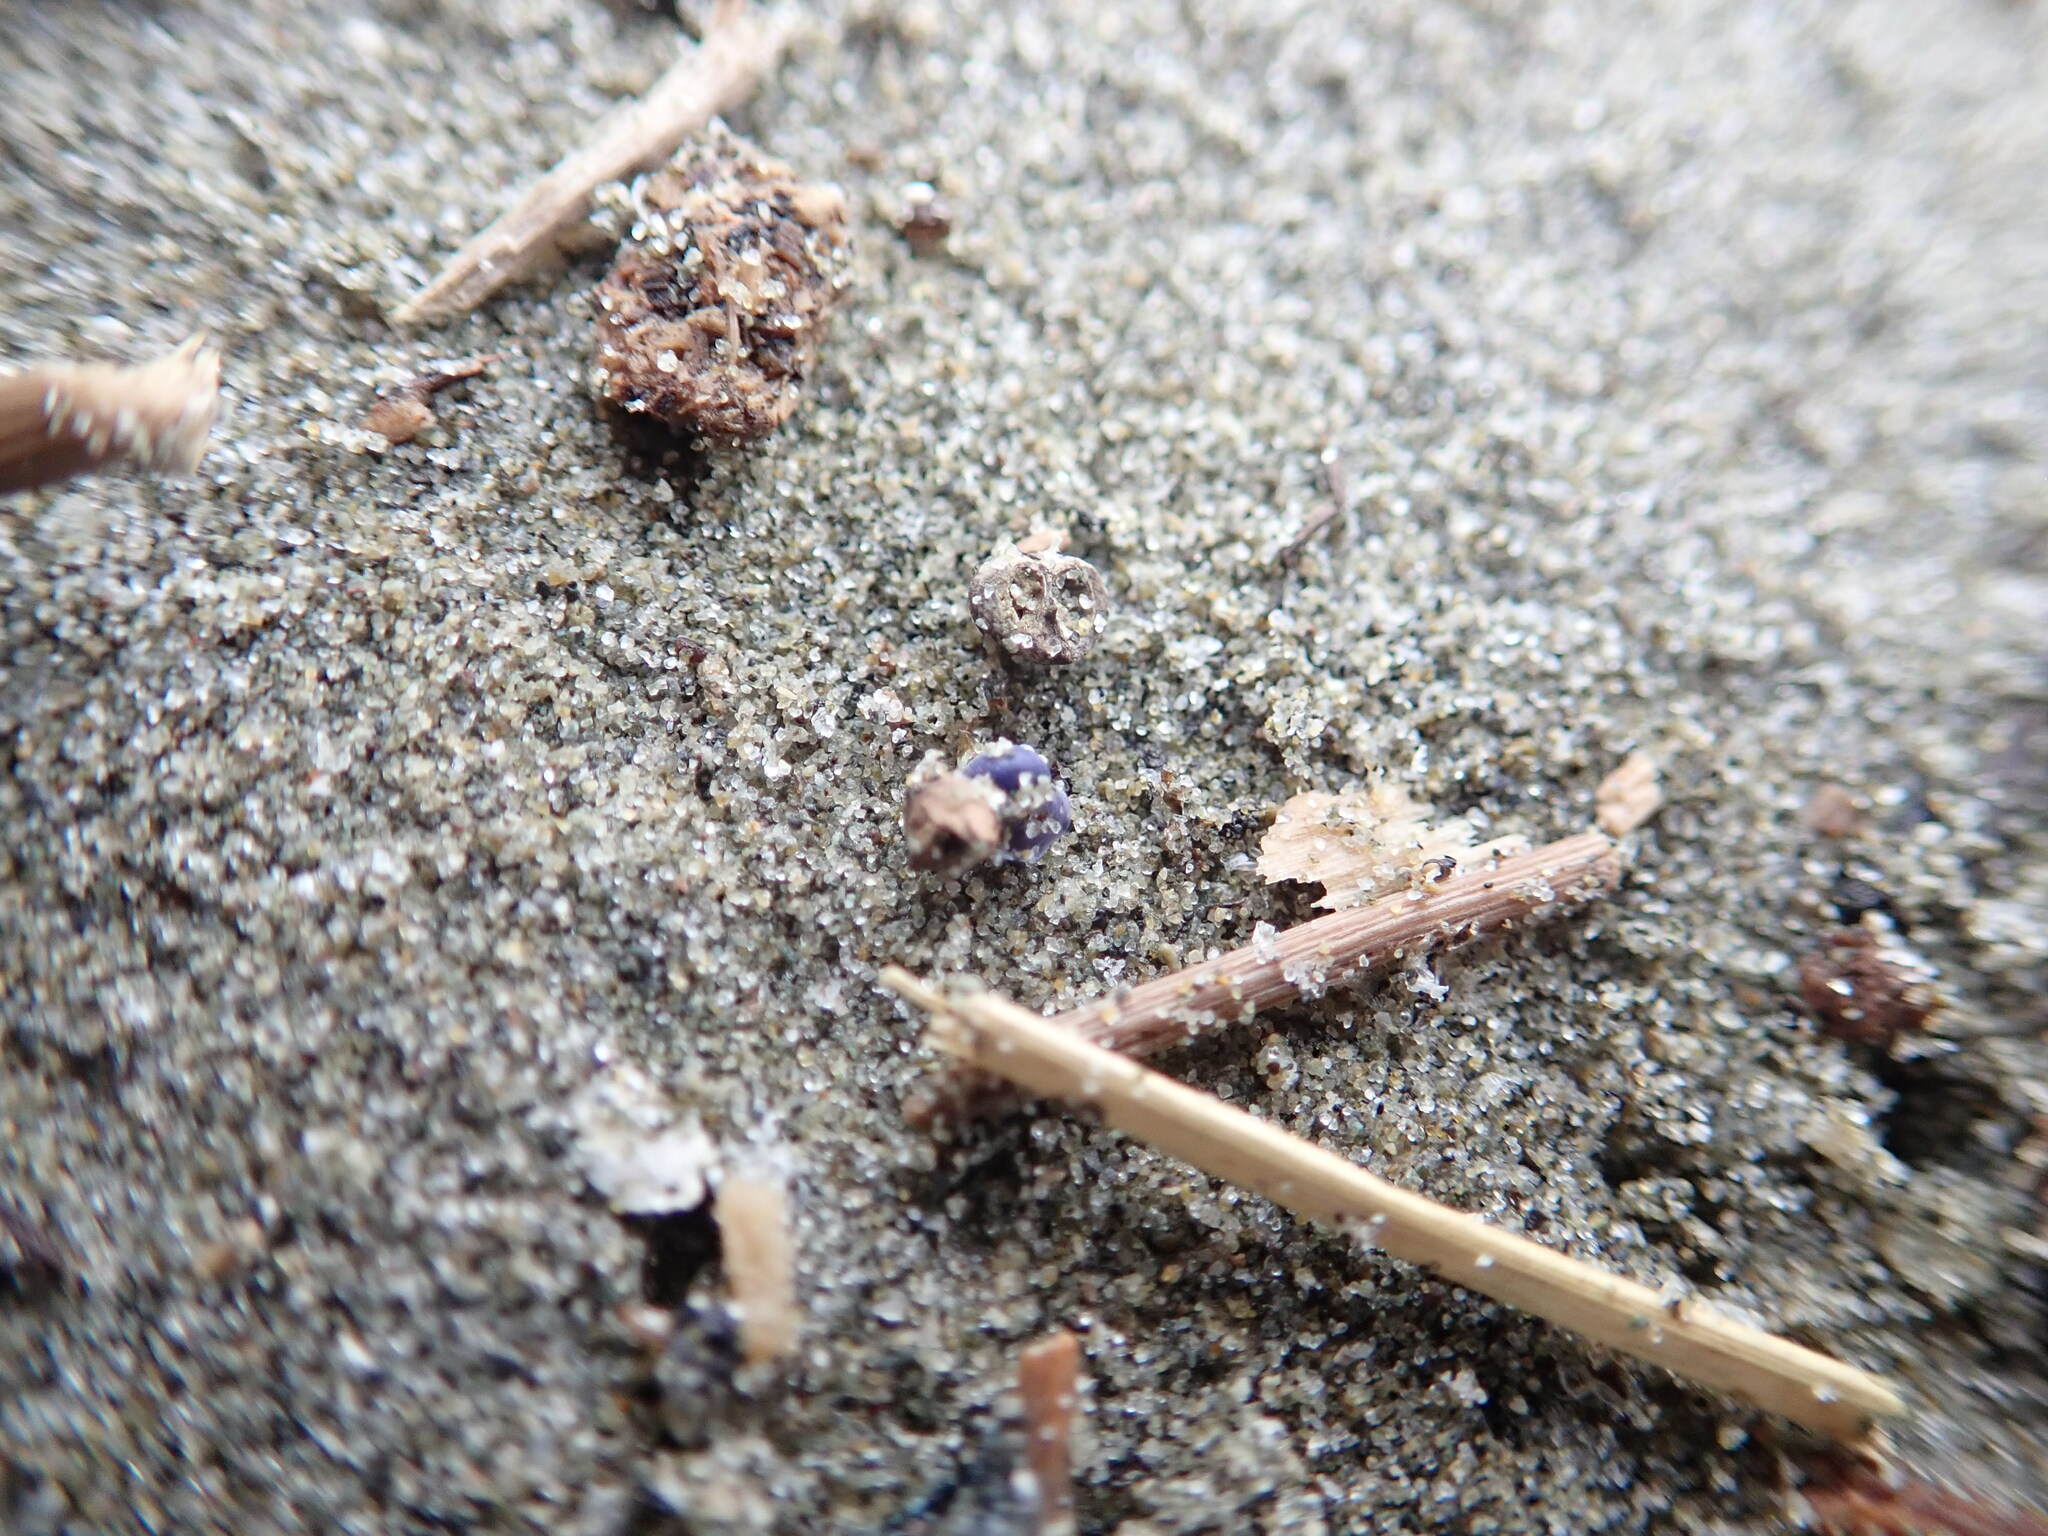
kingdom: Animalia
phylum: Mollusca
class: Gastropoda
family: Epitoniidae
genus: Janthina
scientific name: Janthina exigua
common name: Dwarf janthina
